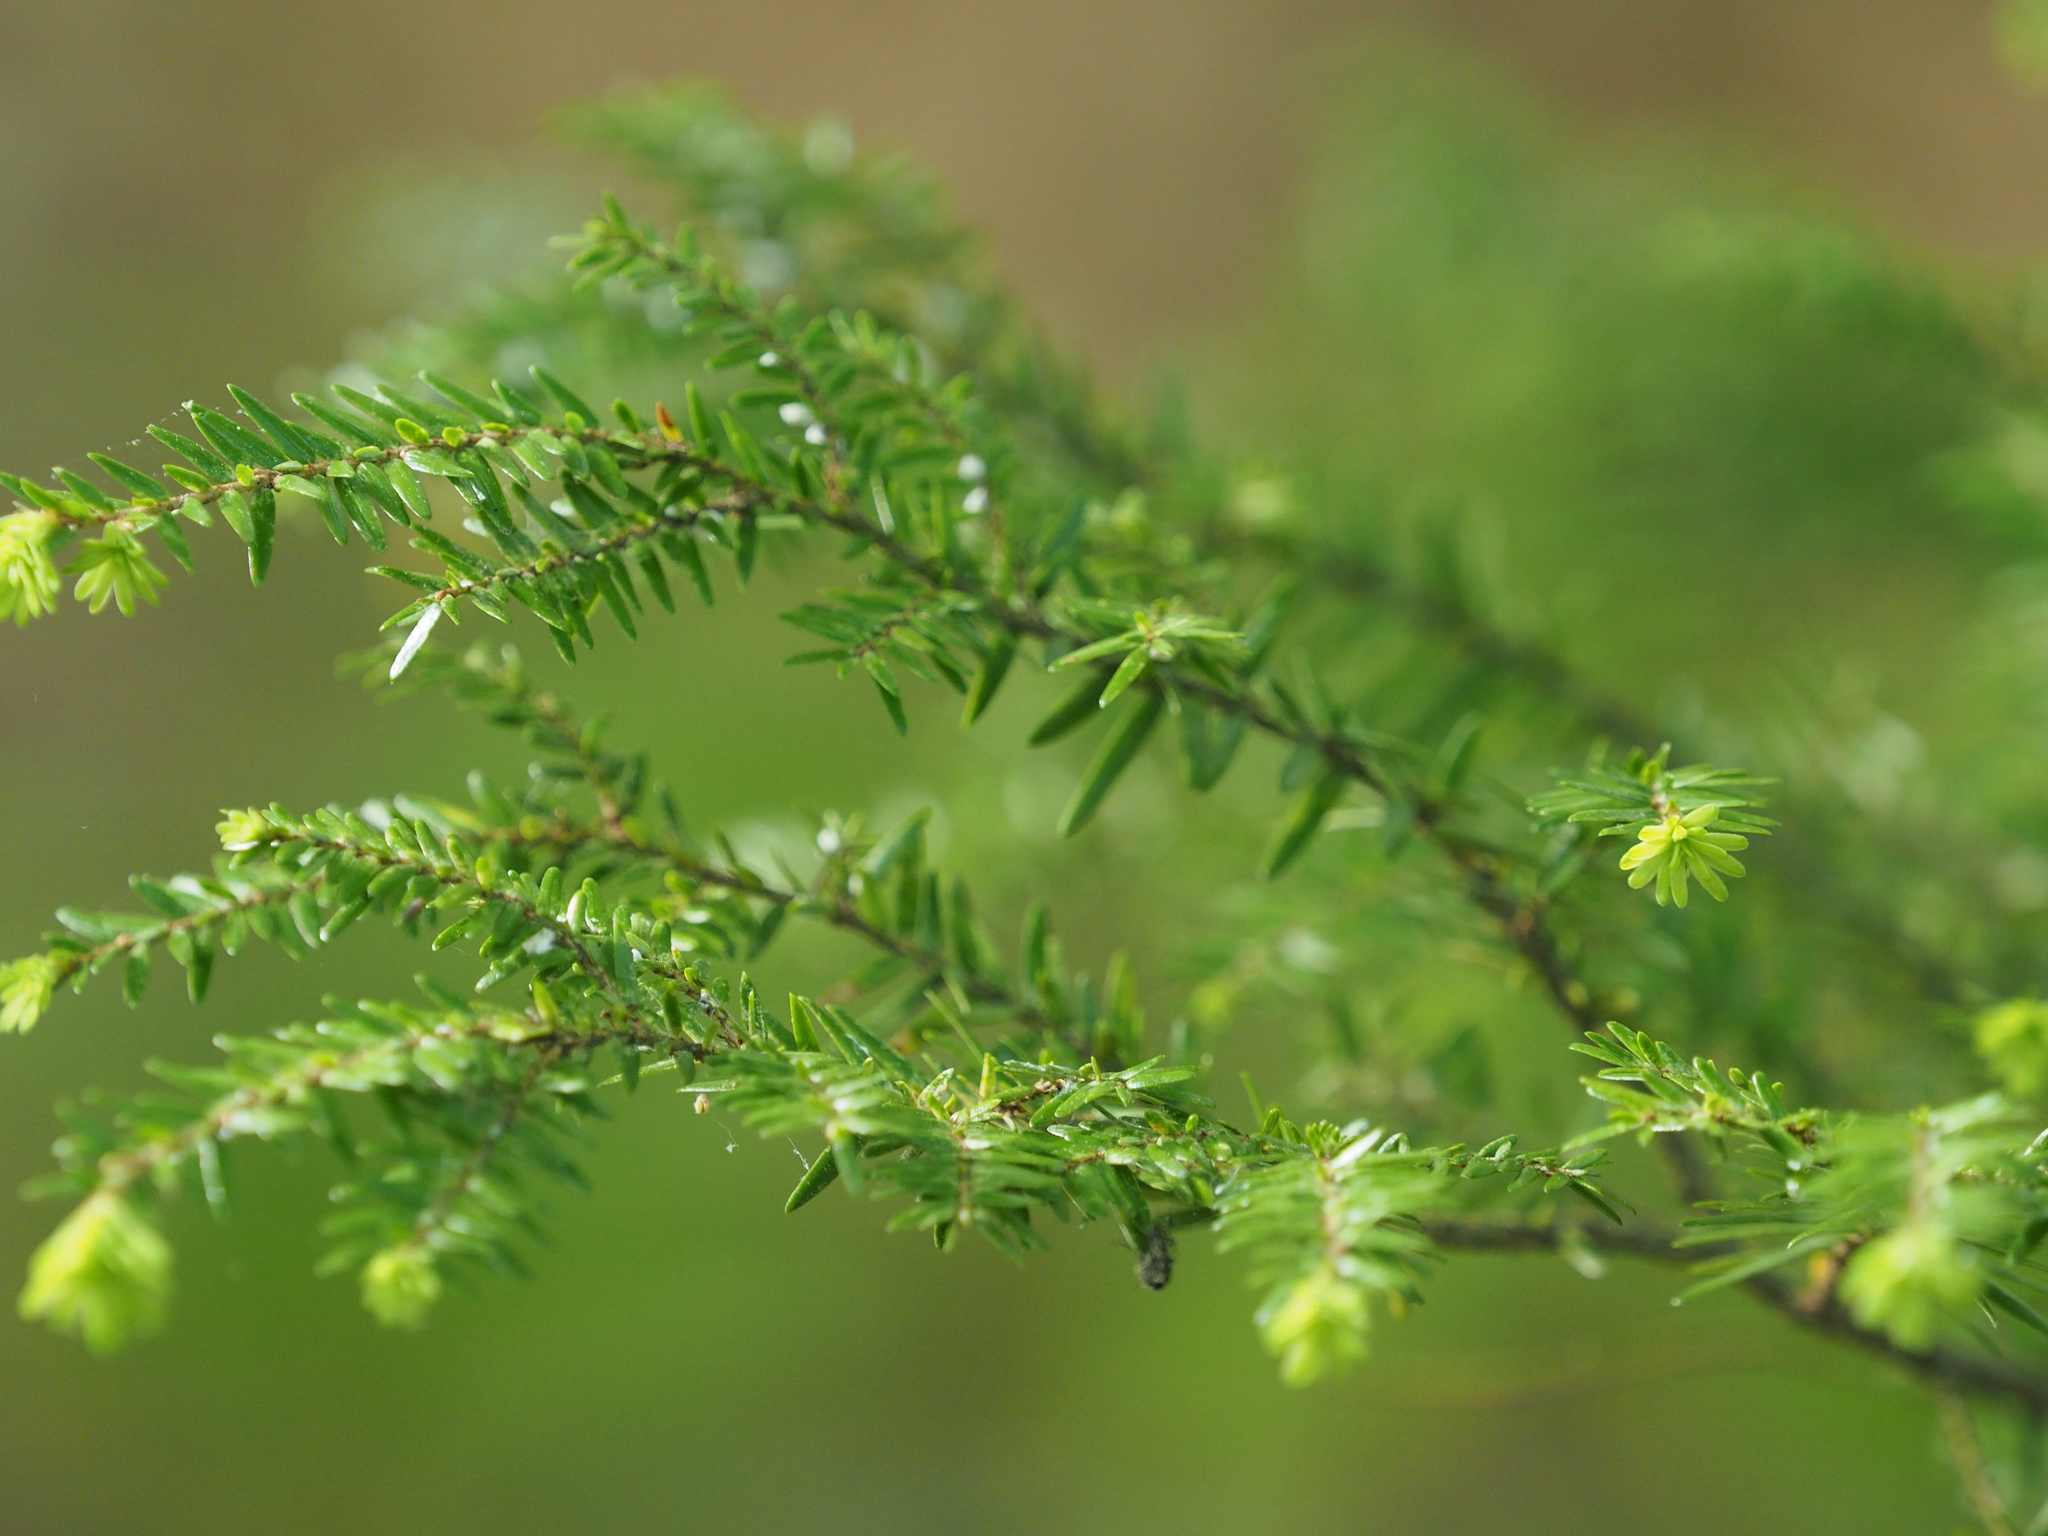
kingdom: Plantae
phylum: Tracheophyta
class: Pinopsida
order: Pinales
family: Pinaceae
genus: Tsuga
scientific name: Tsuga canadensis
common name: Eastern hemlock
